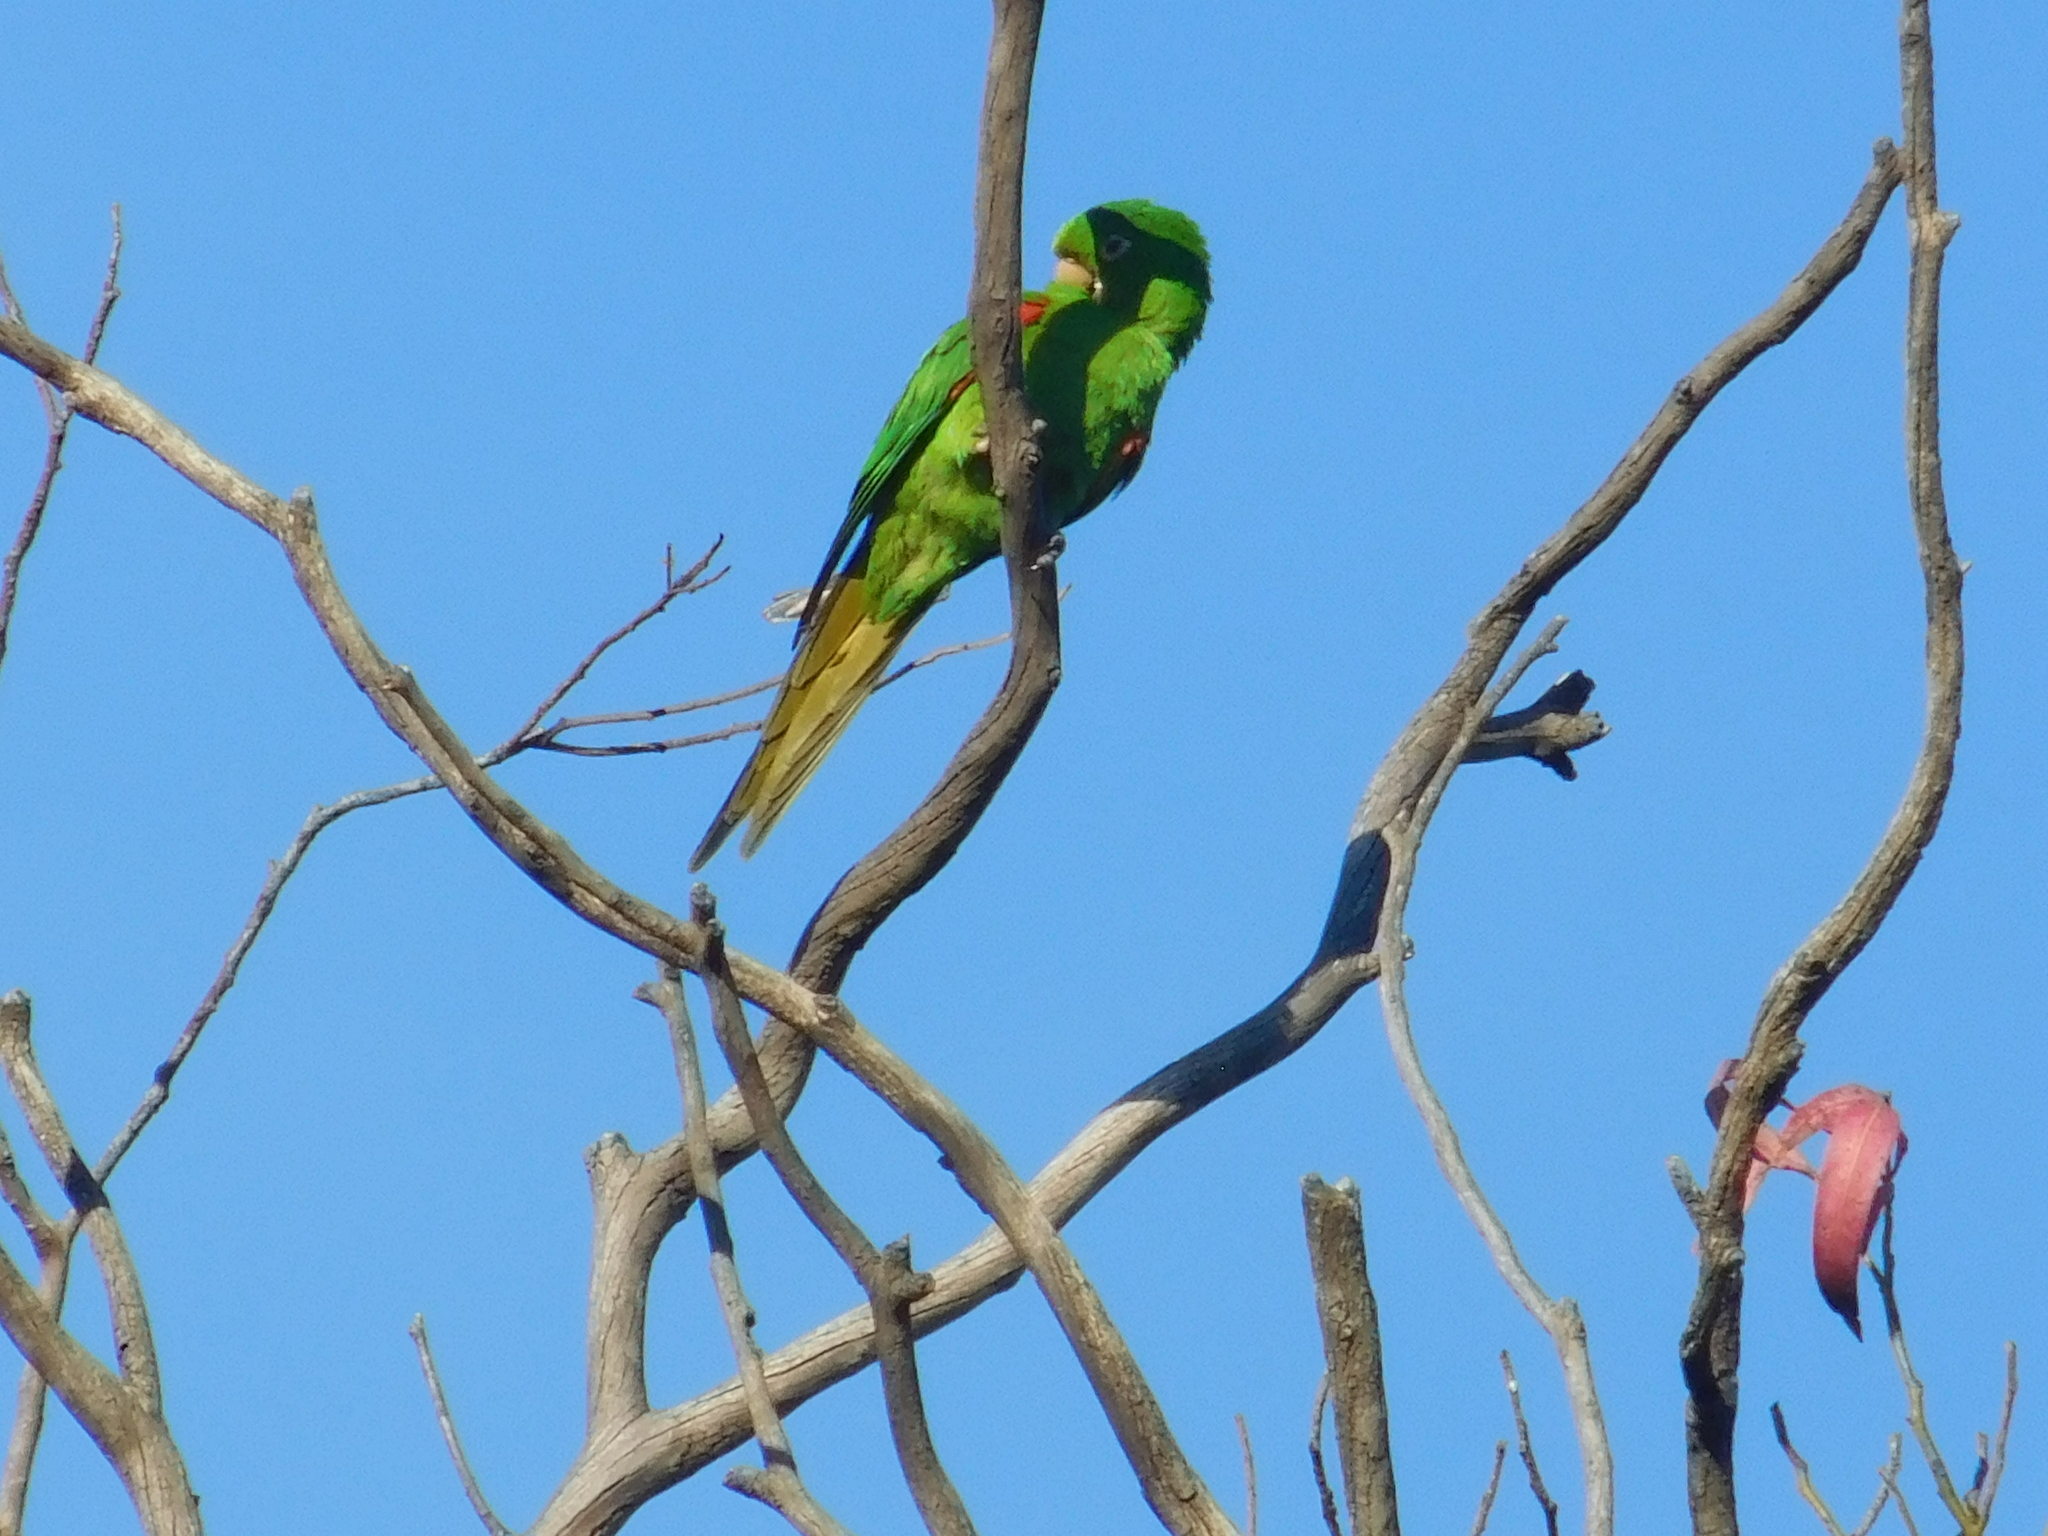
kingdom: Animalia
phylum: Chordata
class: Aves
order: Psittaciformes
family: Psittacidae
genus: Aratinga
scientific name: Aratinga leucophthalma
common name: White-eyed parakeet
